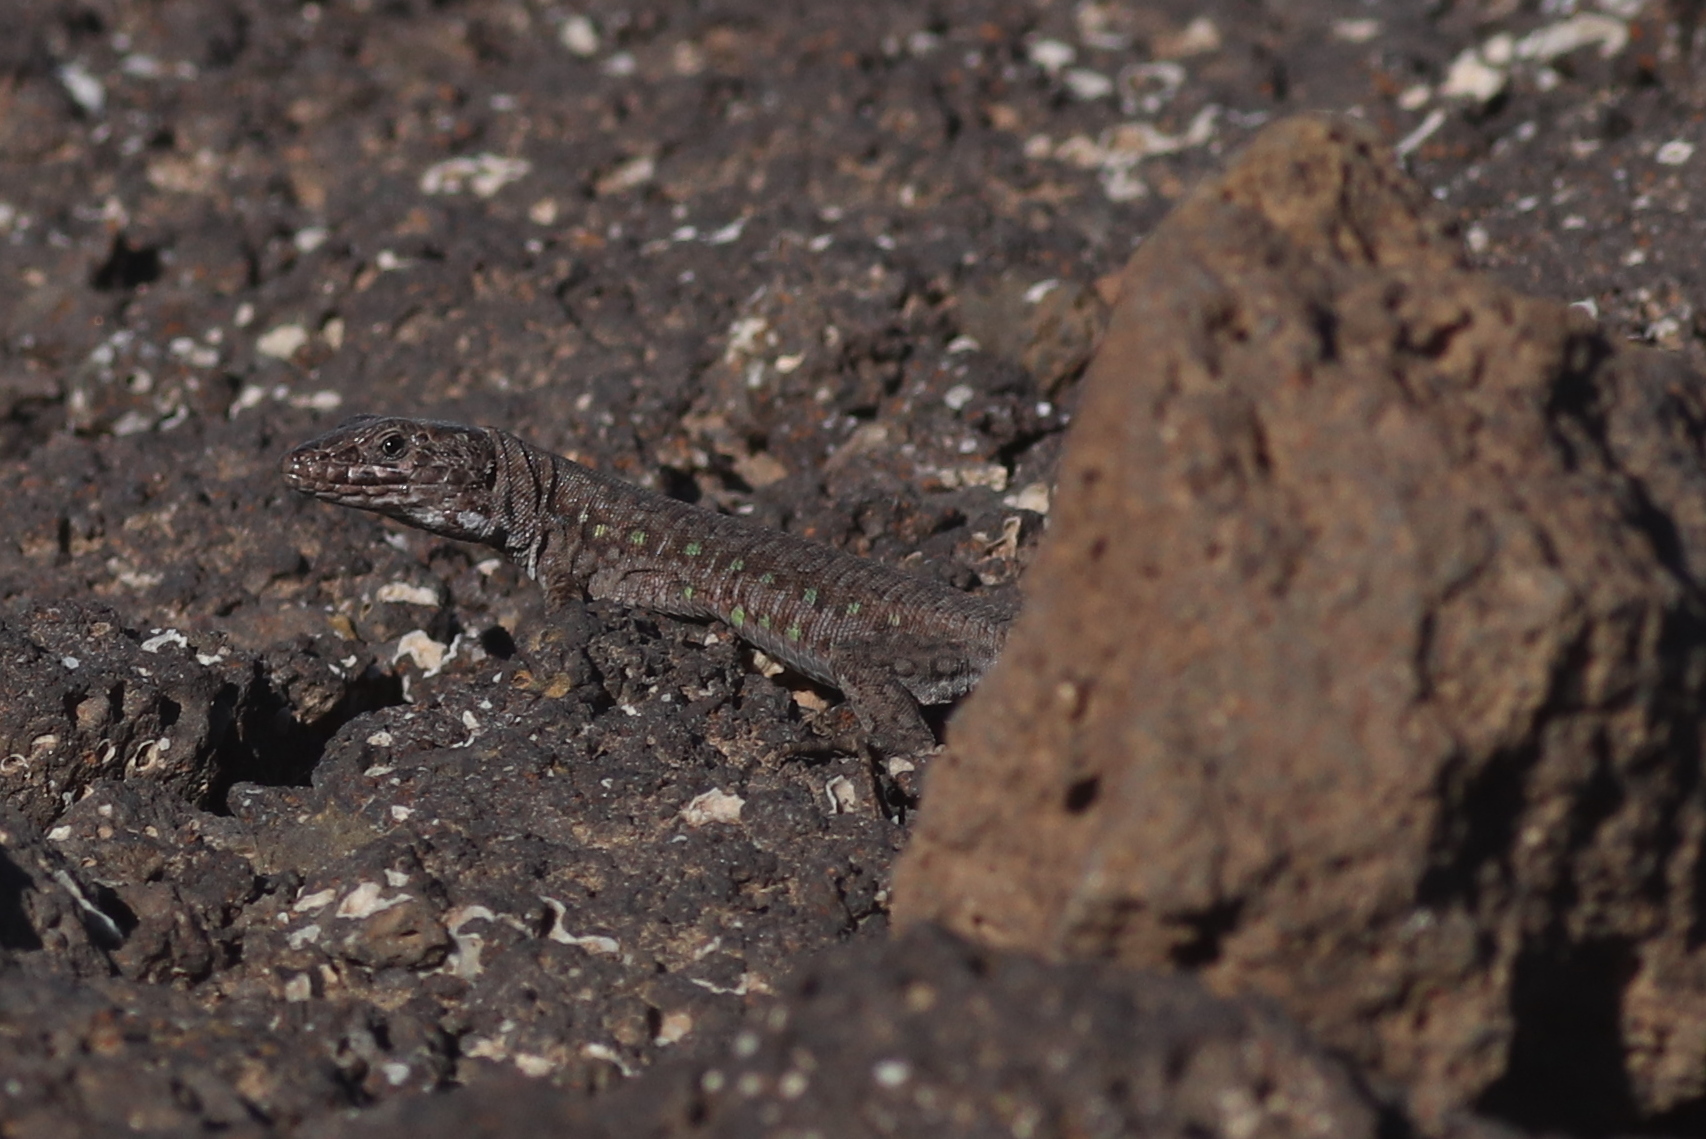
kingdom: Animalia
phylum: Chordata
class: Squamata
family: Lacertidae
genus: Gallotia
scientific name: Gallotia atlantica
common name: Atlantic lizard
